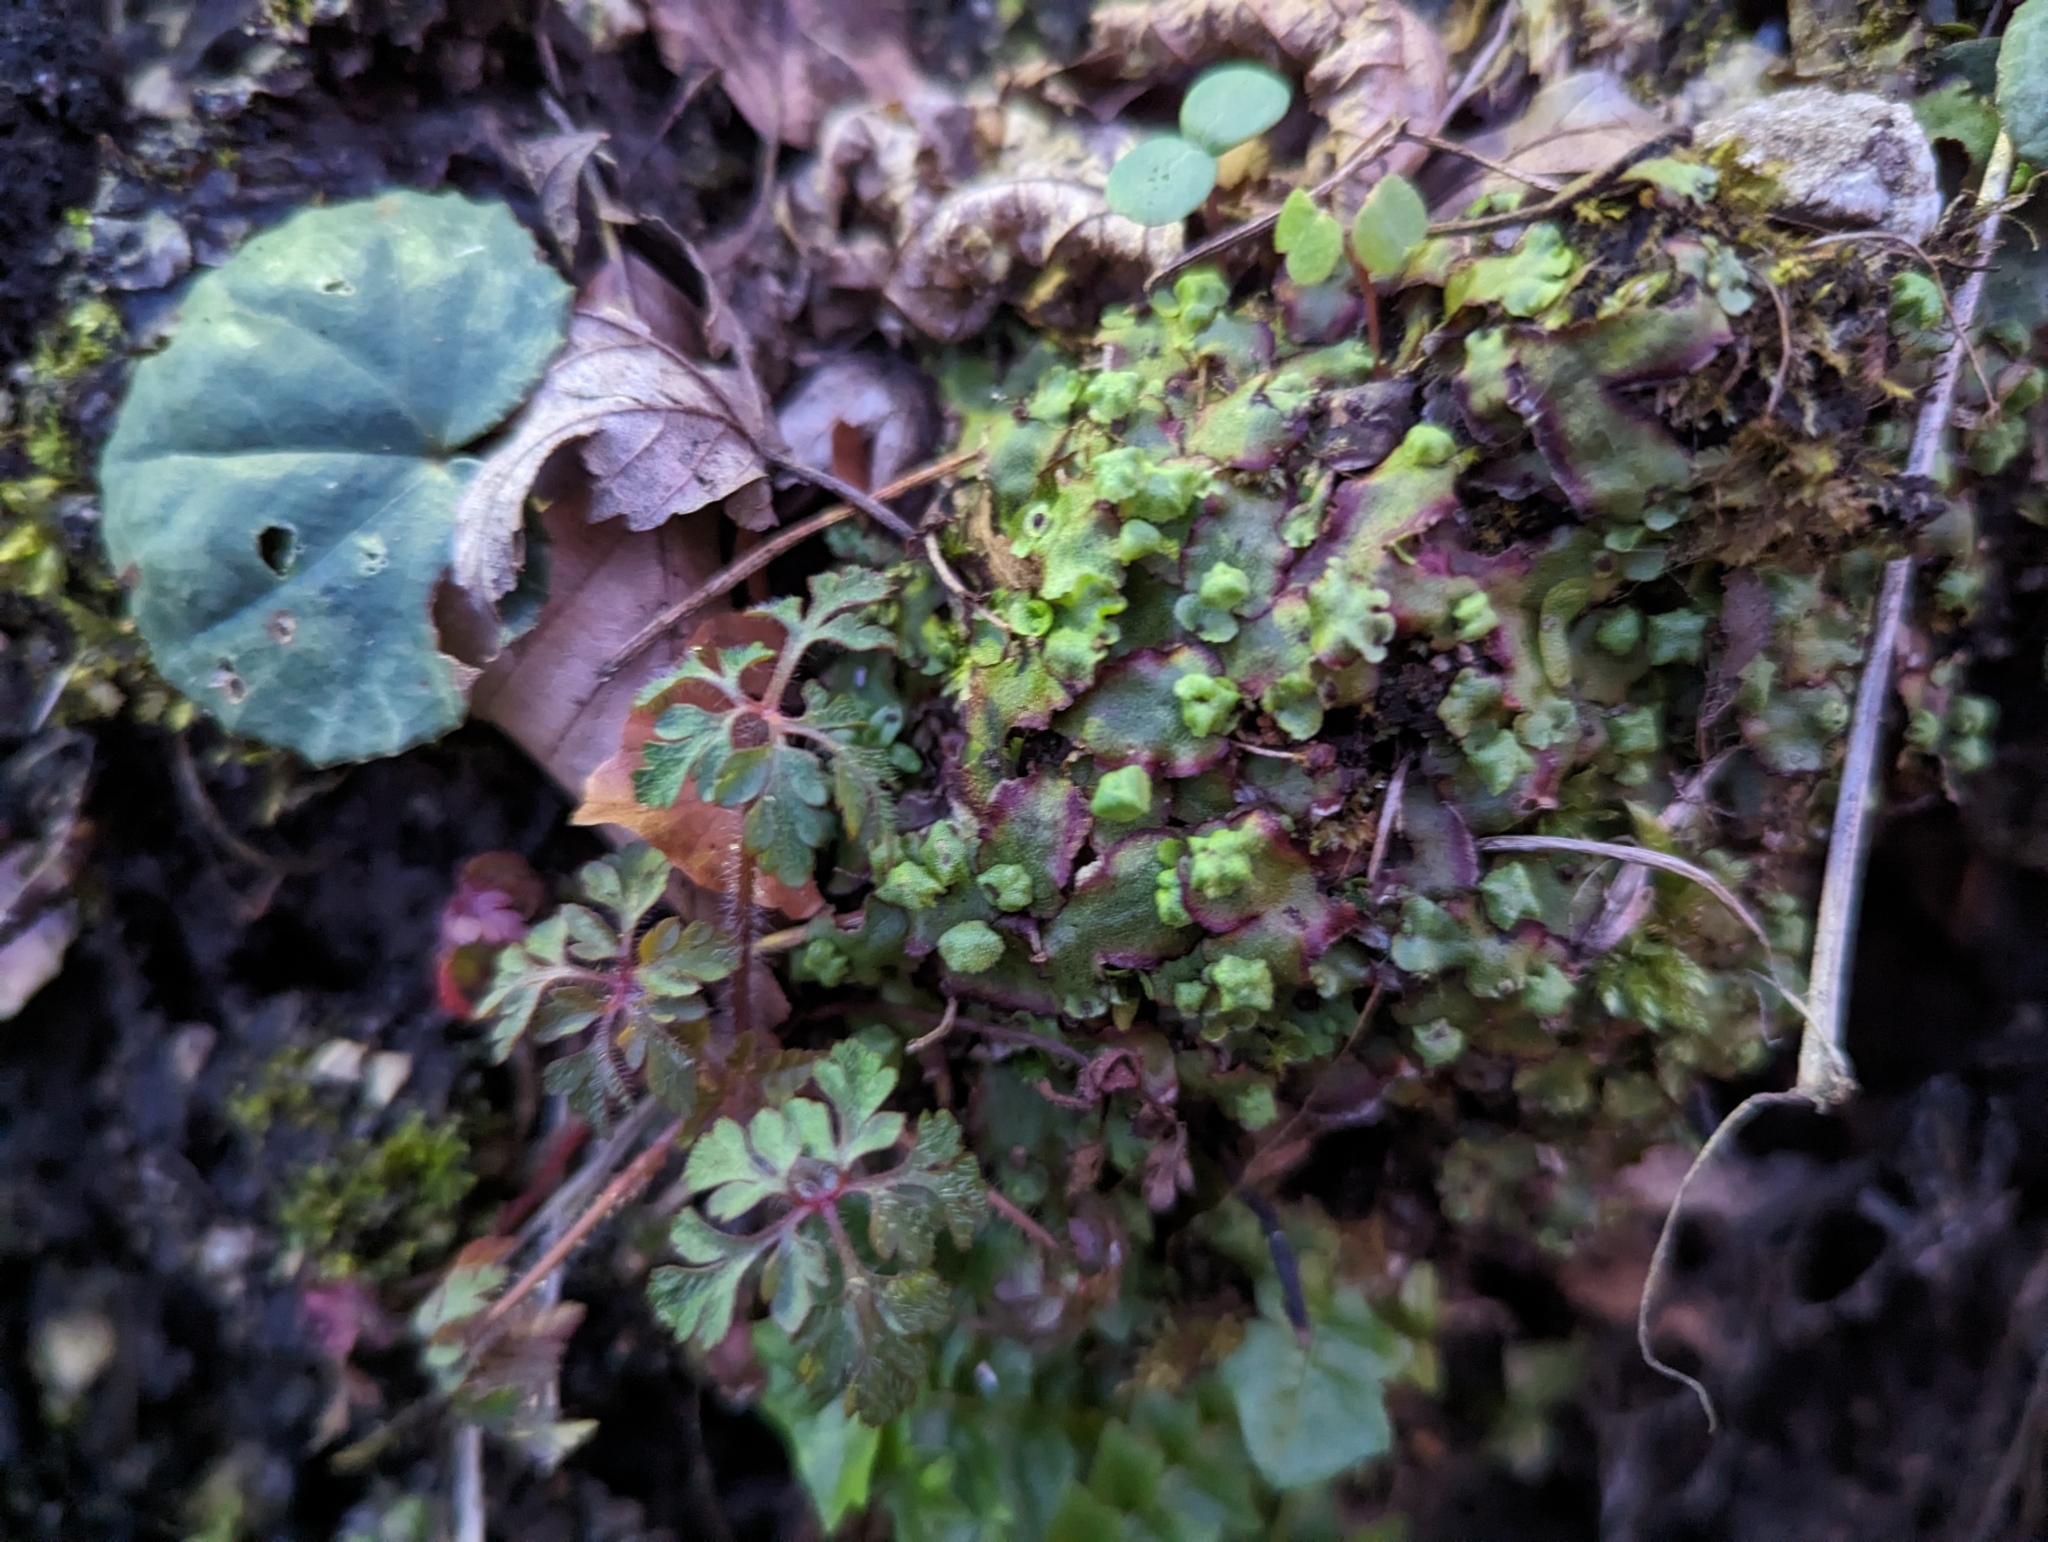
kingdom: Plantae
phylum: Marchantiophyta
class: Marchantiopsida
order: Marchantiales
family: Marchantiaceae
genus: Marchantia
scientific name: Marchantia quadrata
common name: Narrow mushroom-headed liverwort
